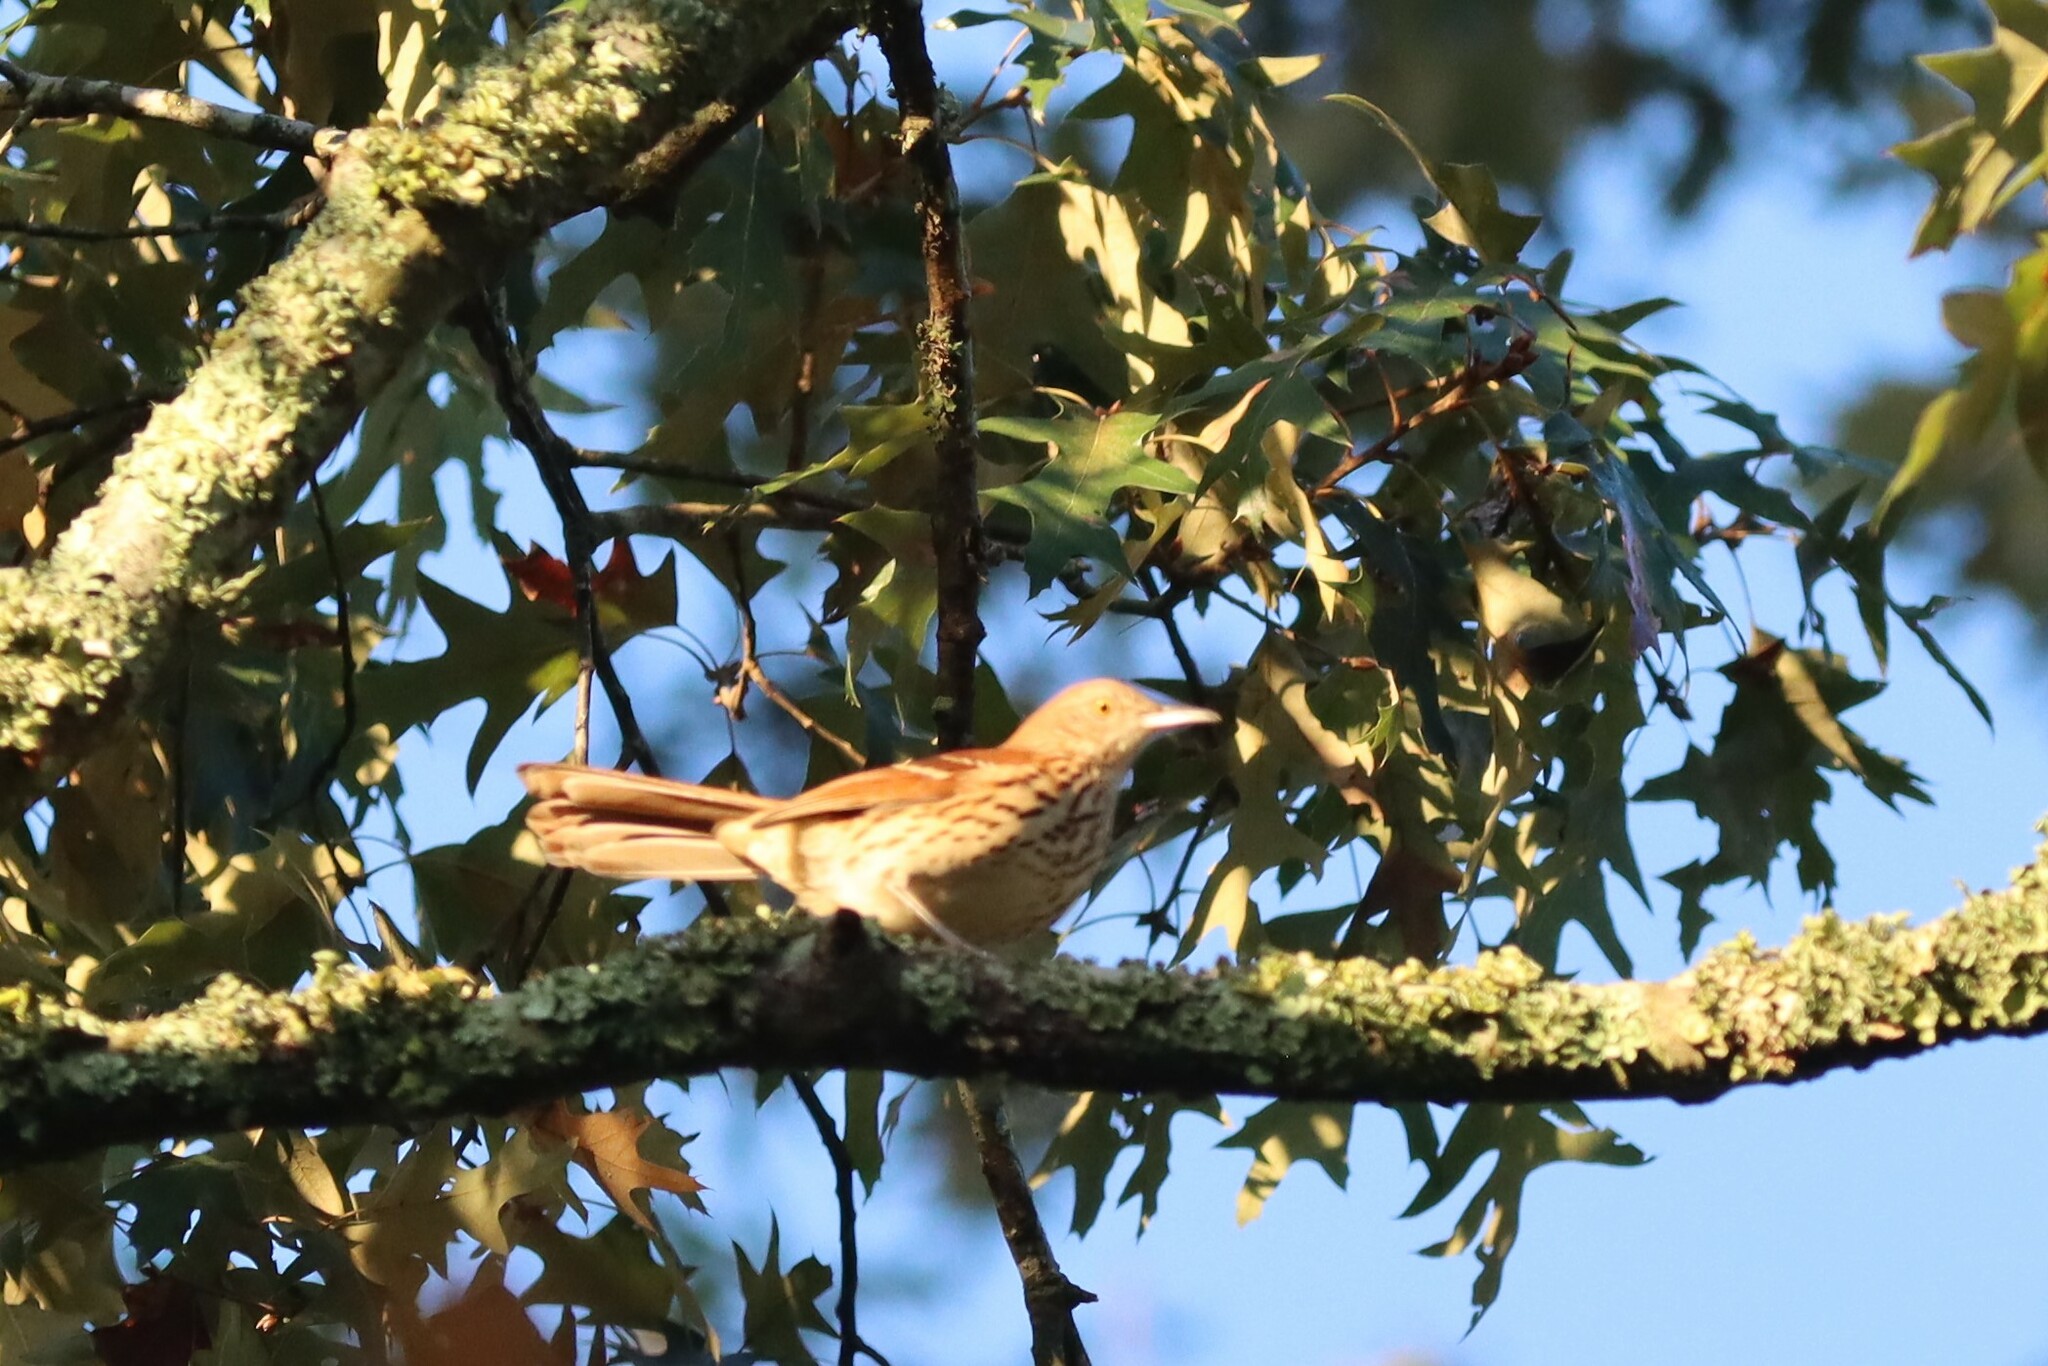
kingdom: Animalia
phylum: Chordata
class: Aves
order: Passeriformes
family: Mimidae
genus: Toxostoma
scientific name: Toxostoma rufum
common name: Brown thrasher
